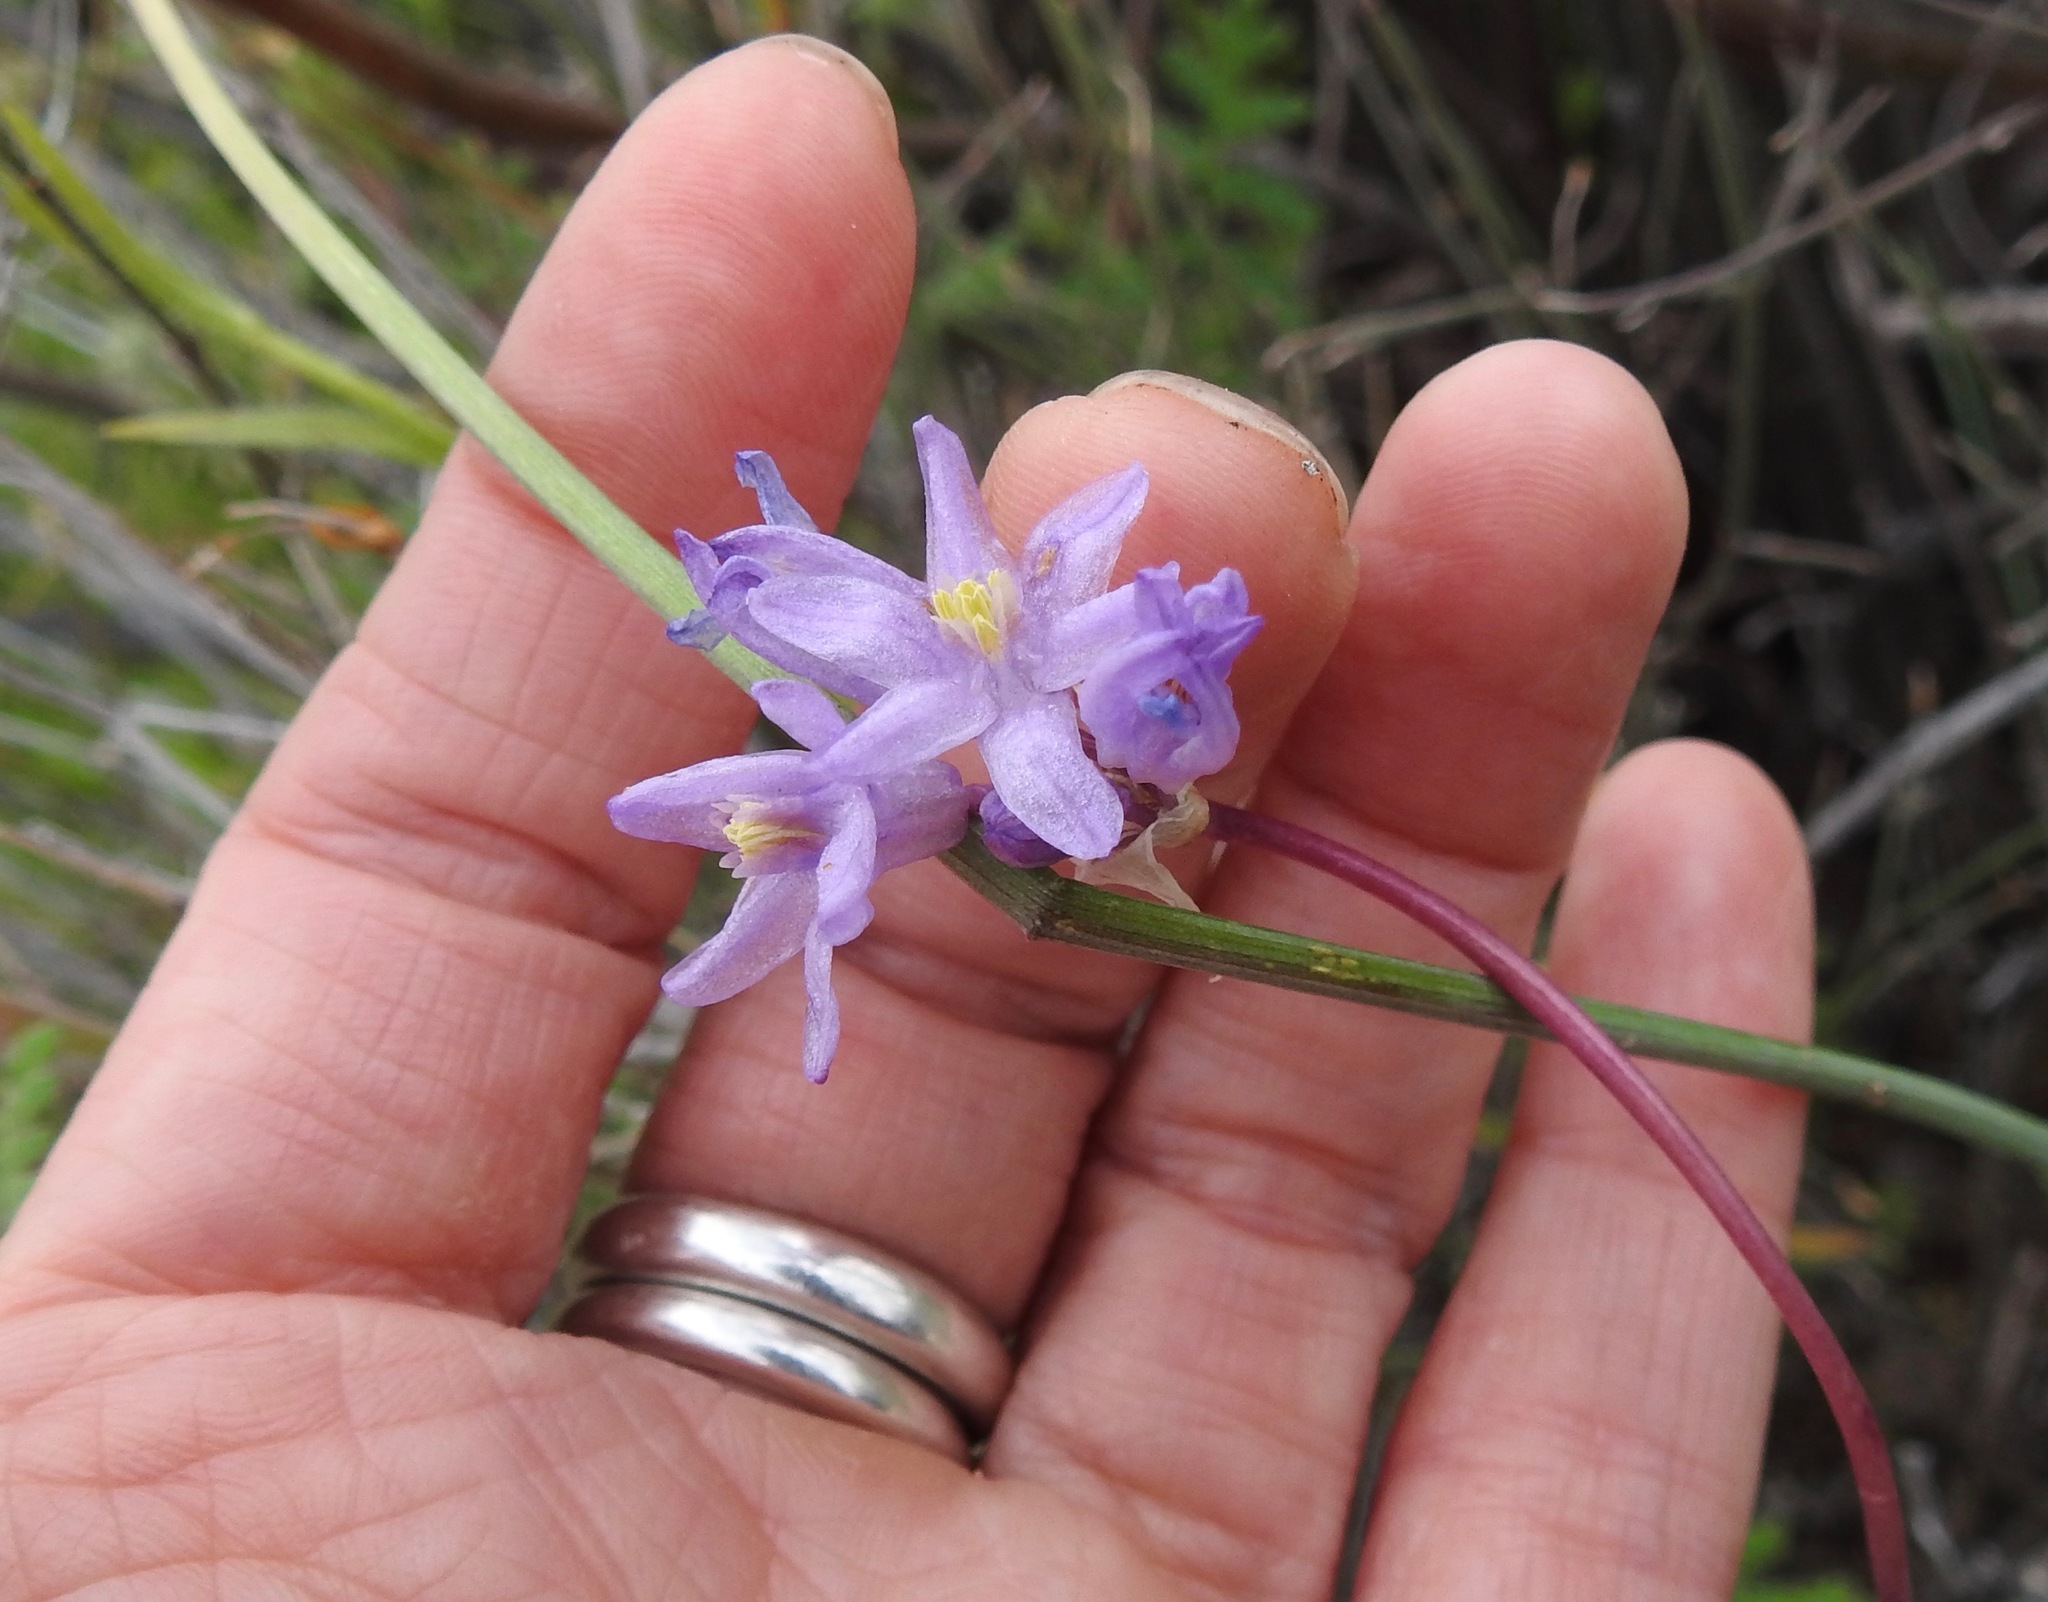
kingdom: Plantae
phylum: Tracheophyta
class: Liliopsida
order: Asparagales
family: Asparagaceae
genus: Dipterostemon
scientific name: Dipterostemon capitatus
